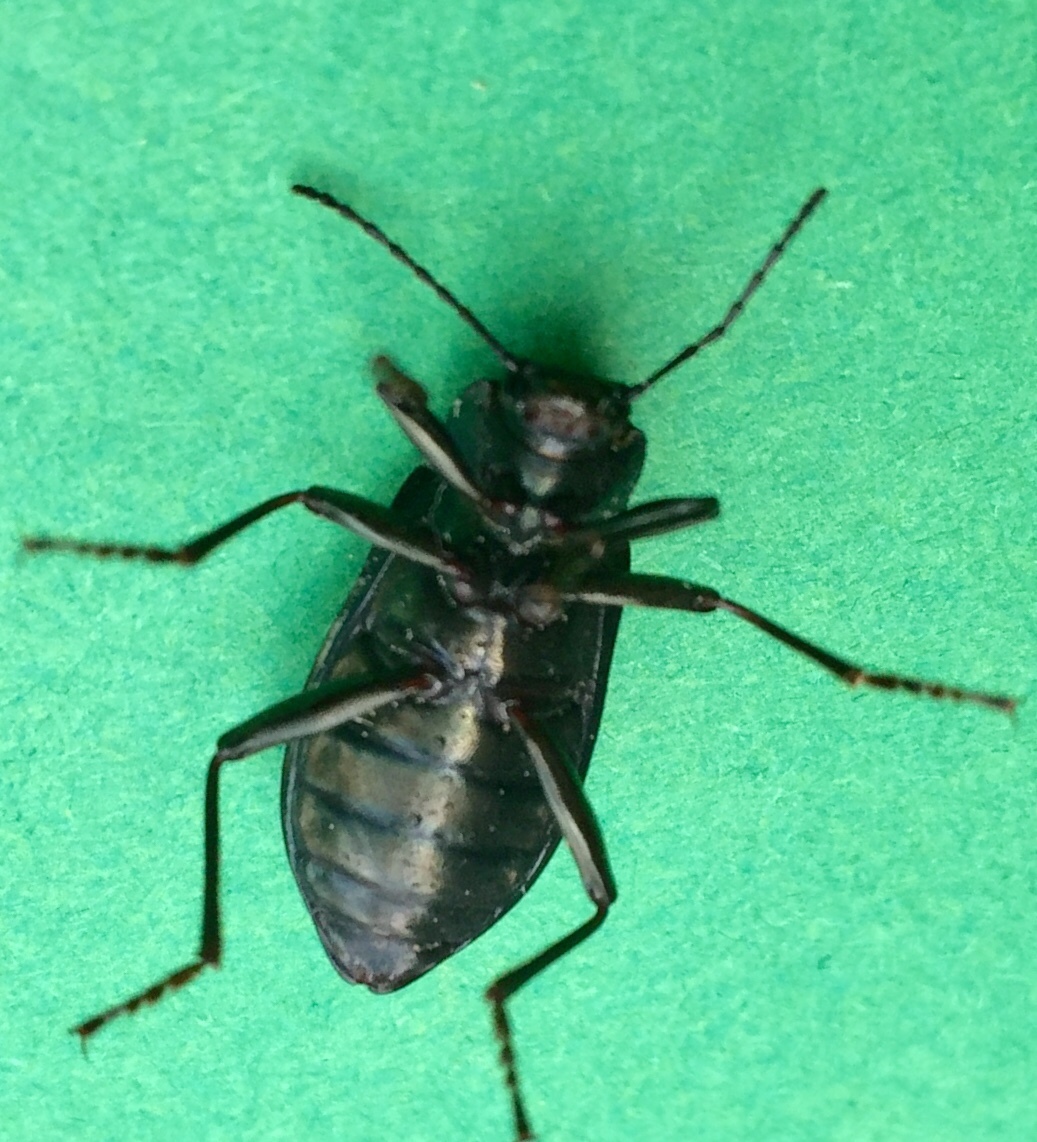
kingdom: Animalia
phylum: Arthropoda
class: Insecta
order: Coleoptera
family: Tenebrionidae
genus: Tarpela
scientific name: Tarpela micans
